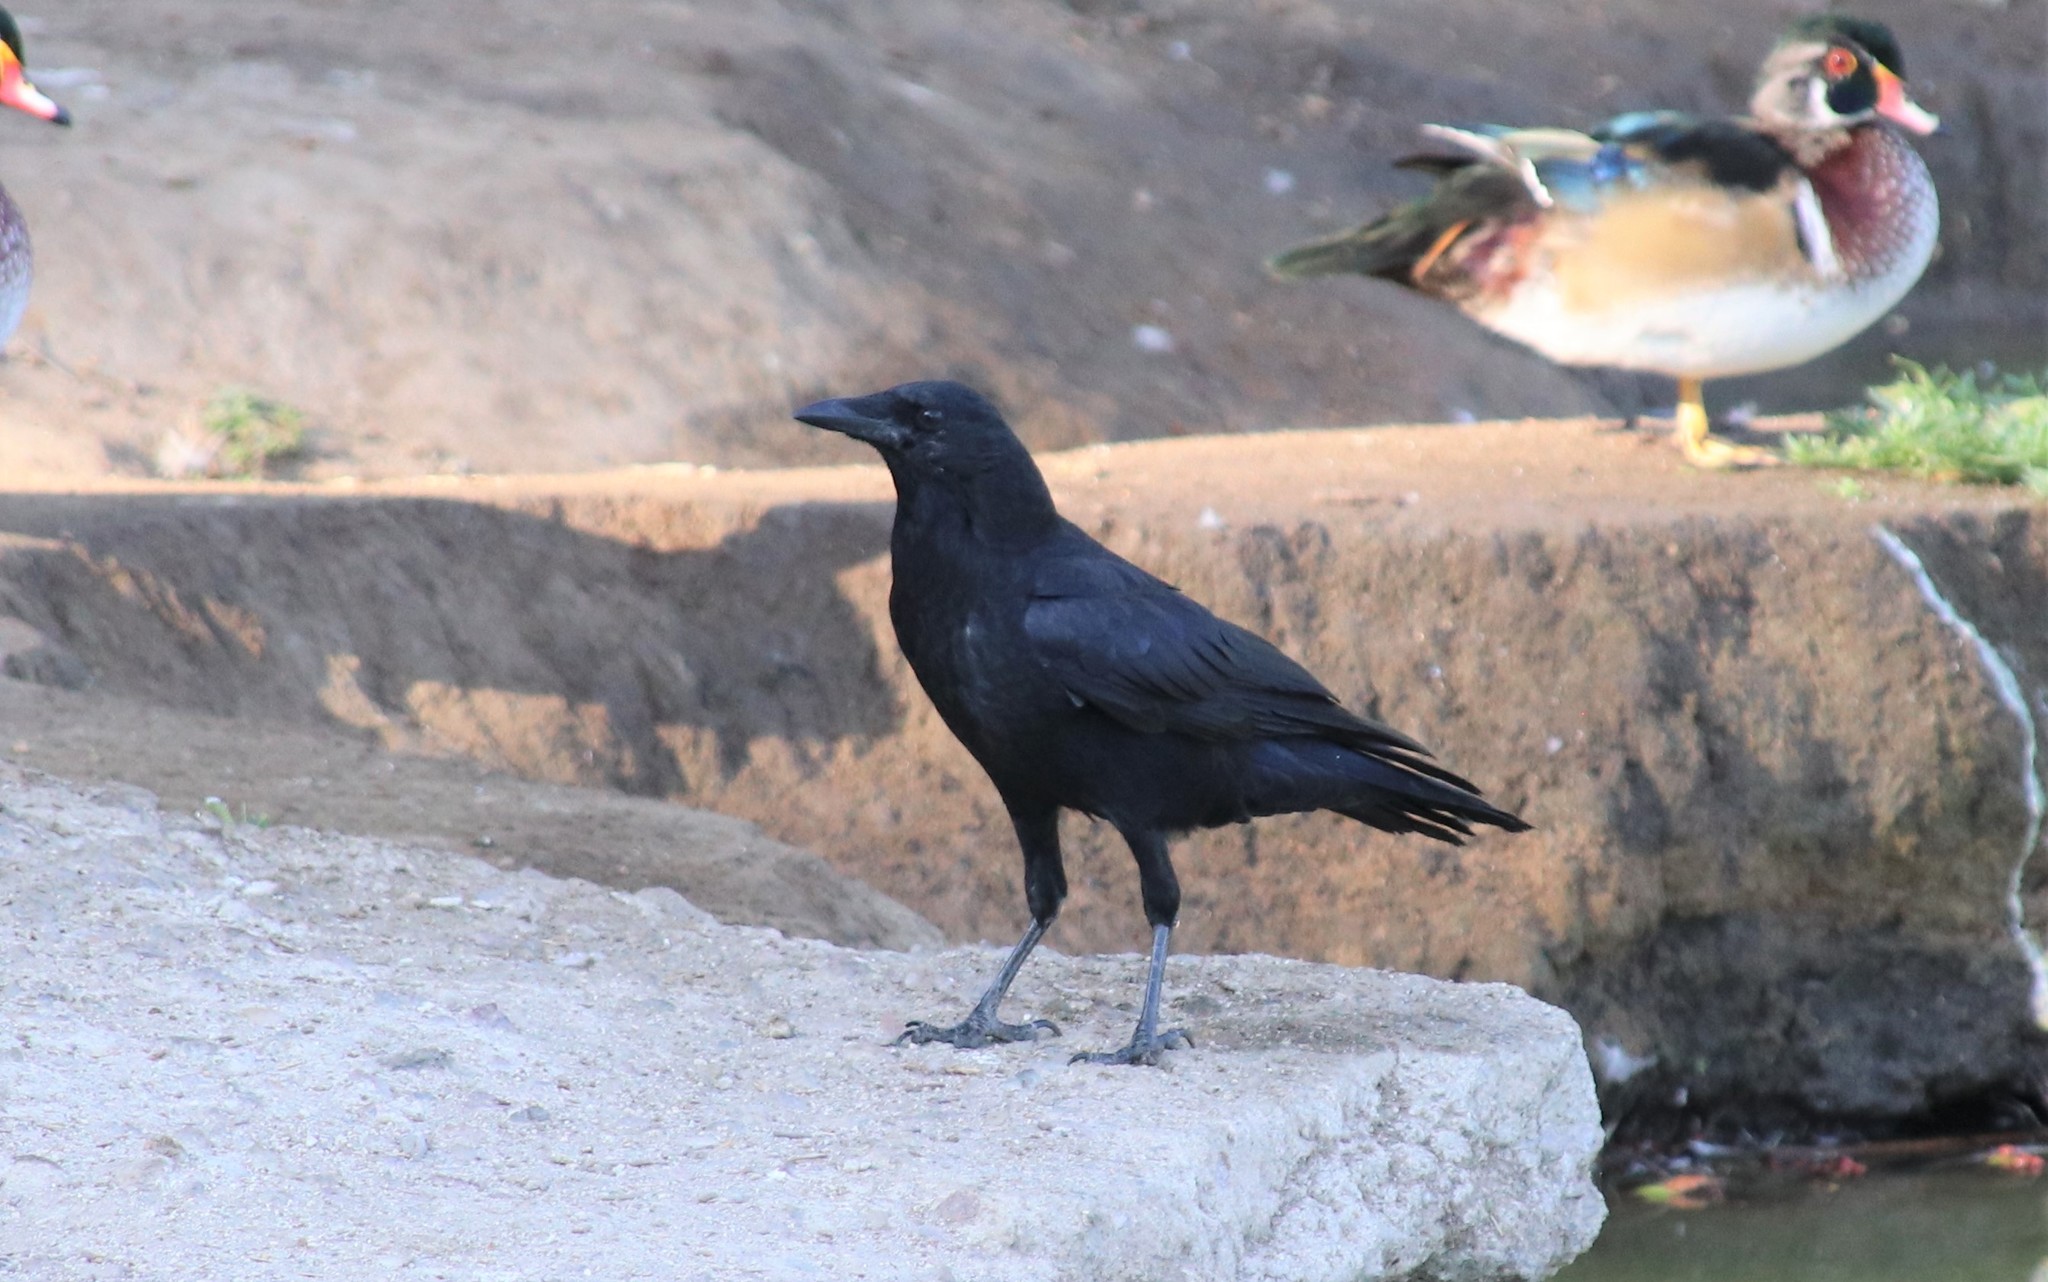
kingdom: Animalia
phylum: Chordata
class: Aves
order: Passeriformes
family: Corvidae
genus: Corvus
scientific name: Corvus brachyrhynchos
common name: American crow
